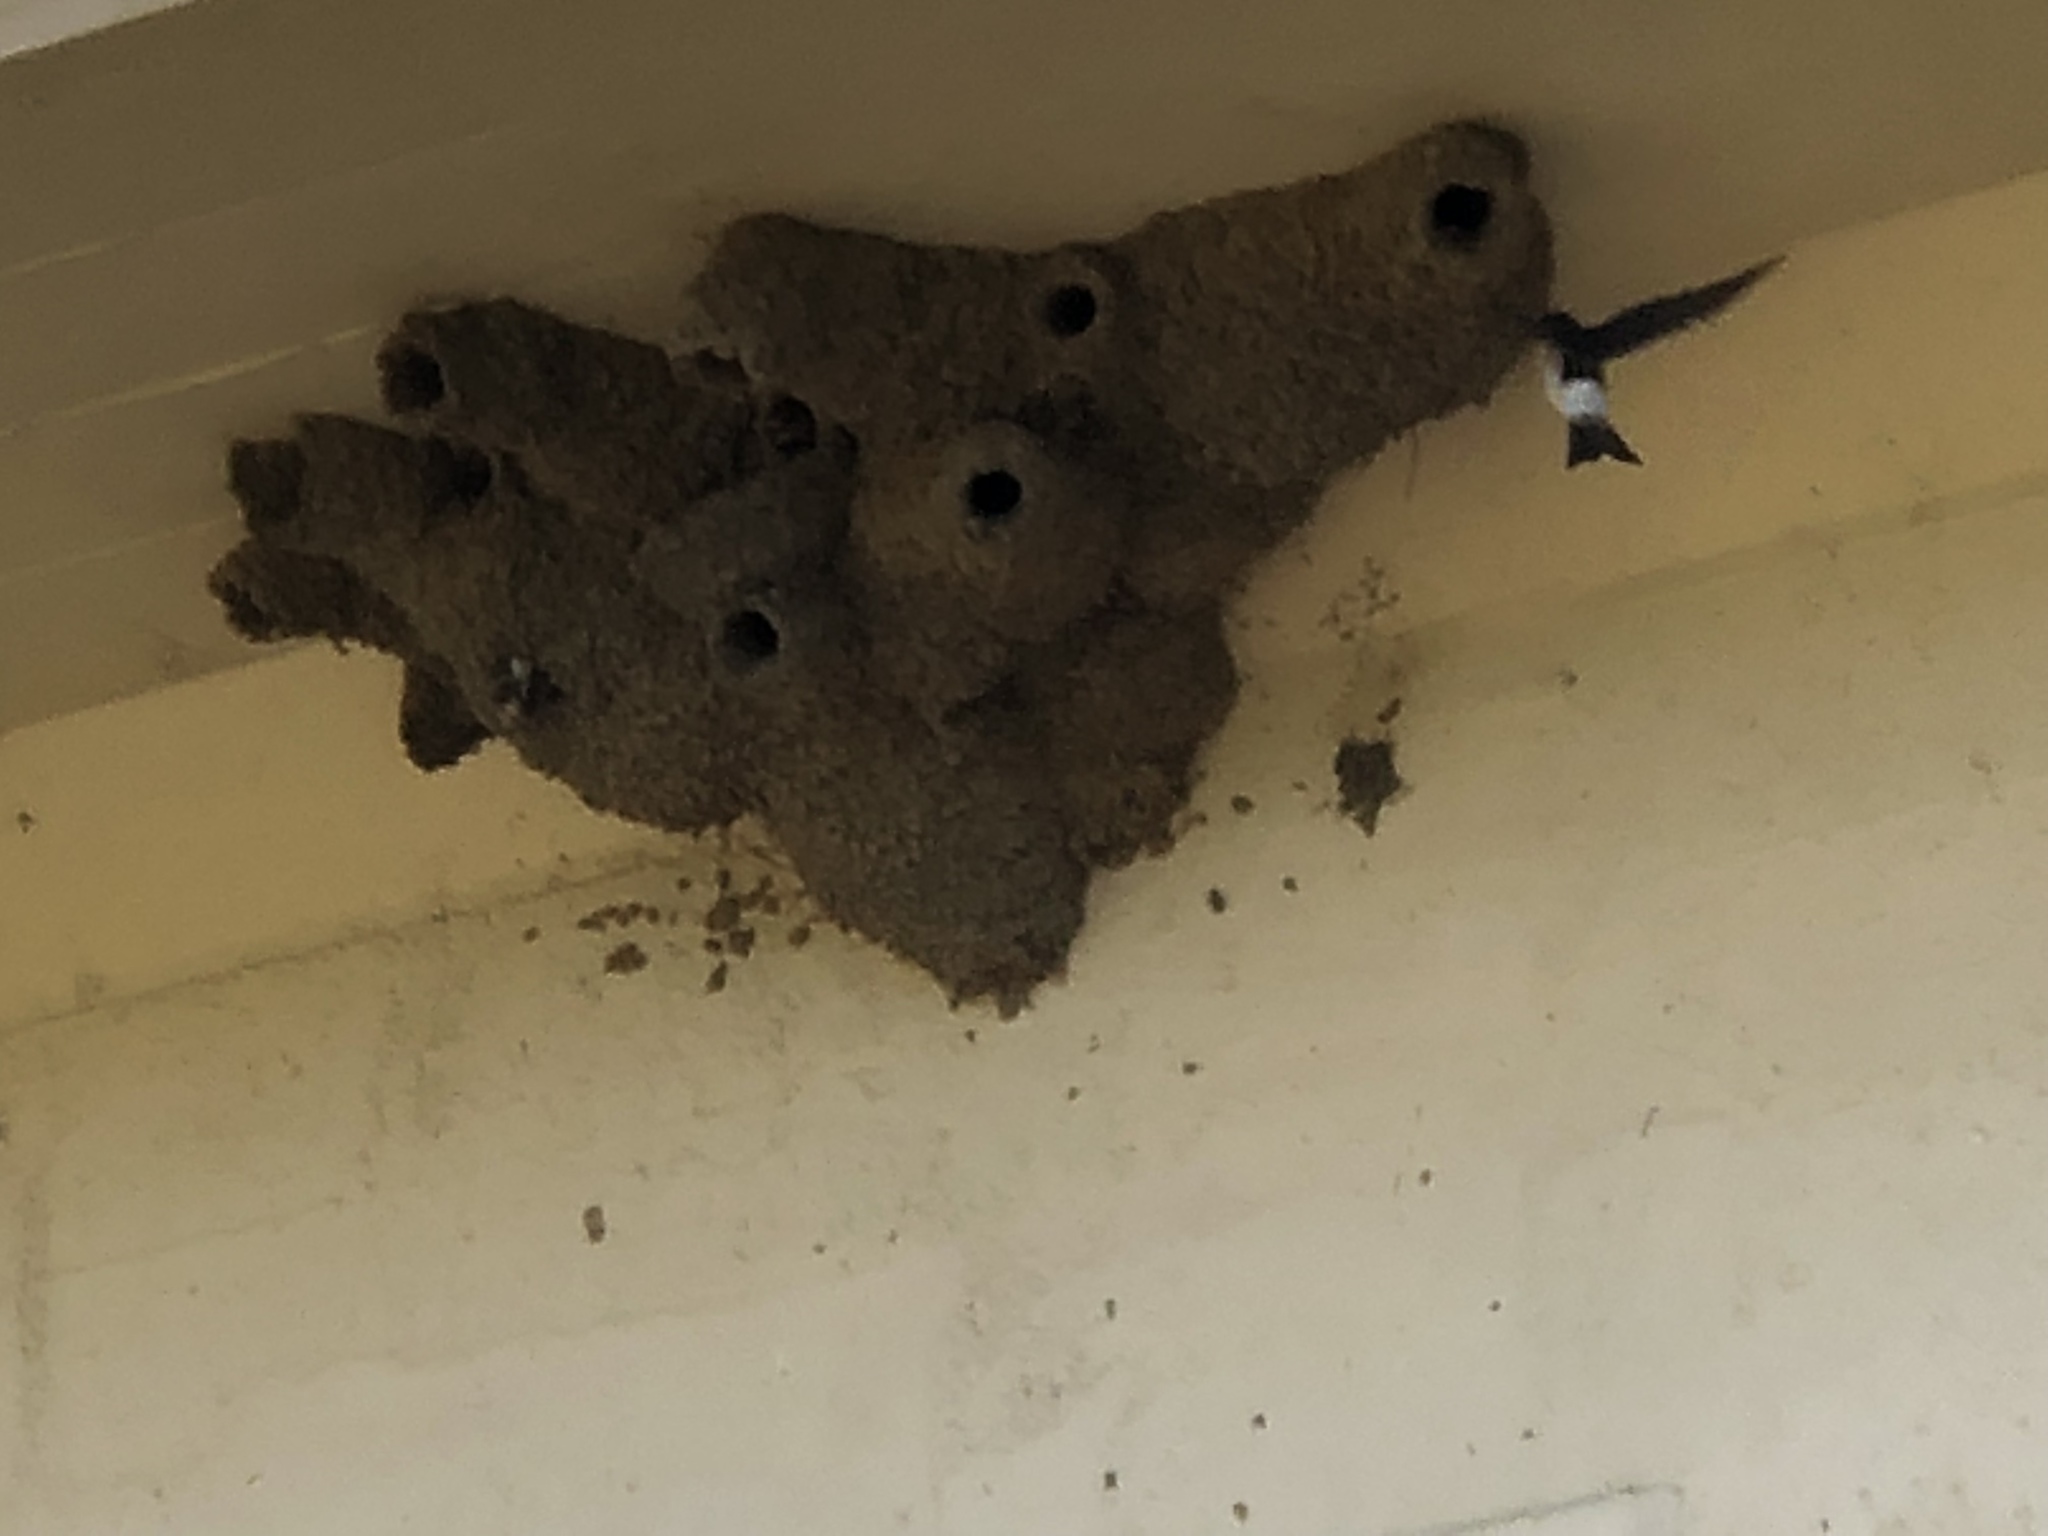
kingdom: Animalia
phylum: Chordata
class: Aves
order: Passeriformes
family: Hirundinidae
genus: Petrochelidon
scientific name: Petrochelidon ariel
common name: Fairy martin
